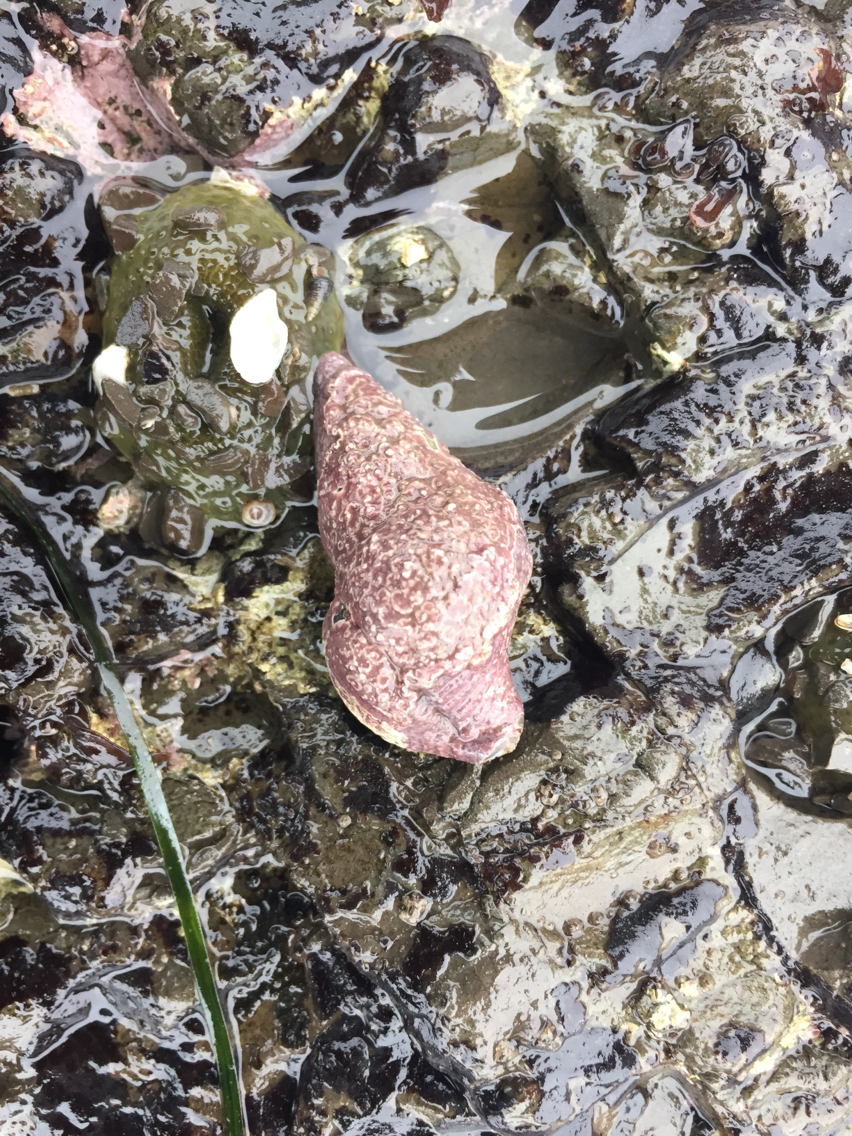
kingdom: Animalia
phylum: Mollusca
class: Gastropoda
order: Neogastropoda
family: Tudiclidae
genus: Lirabuccinum
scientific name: Lirabuccinum dirum
